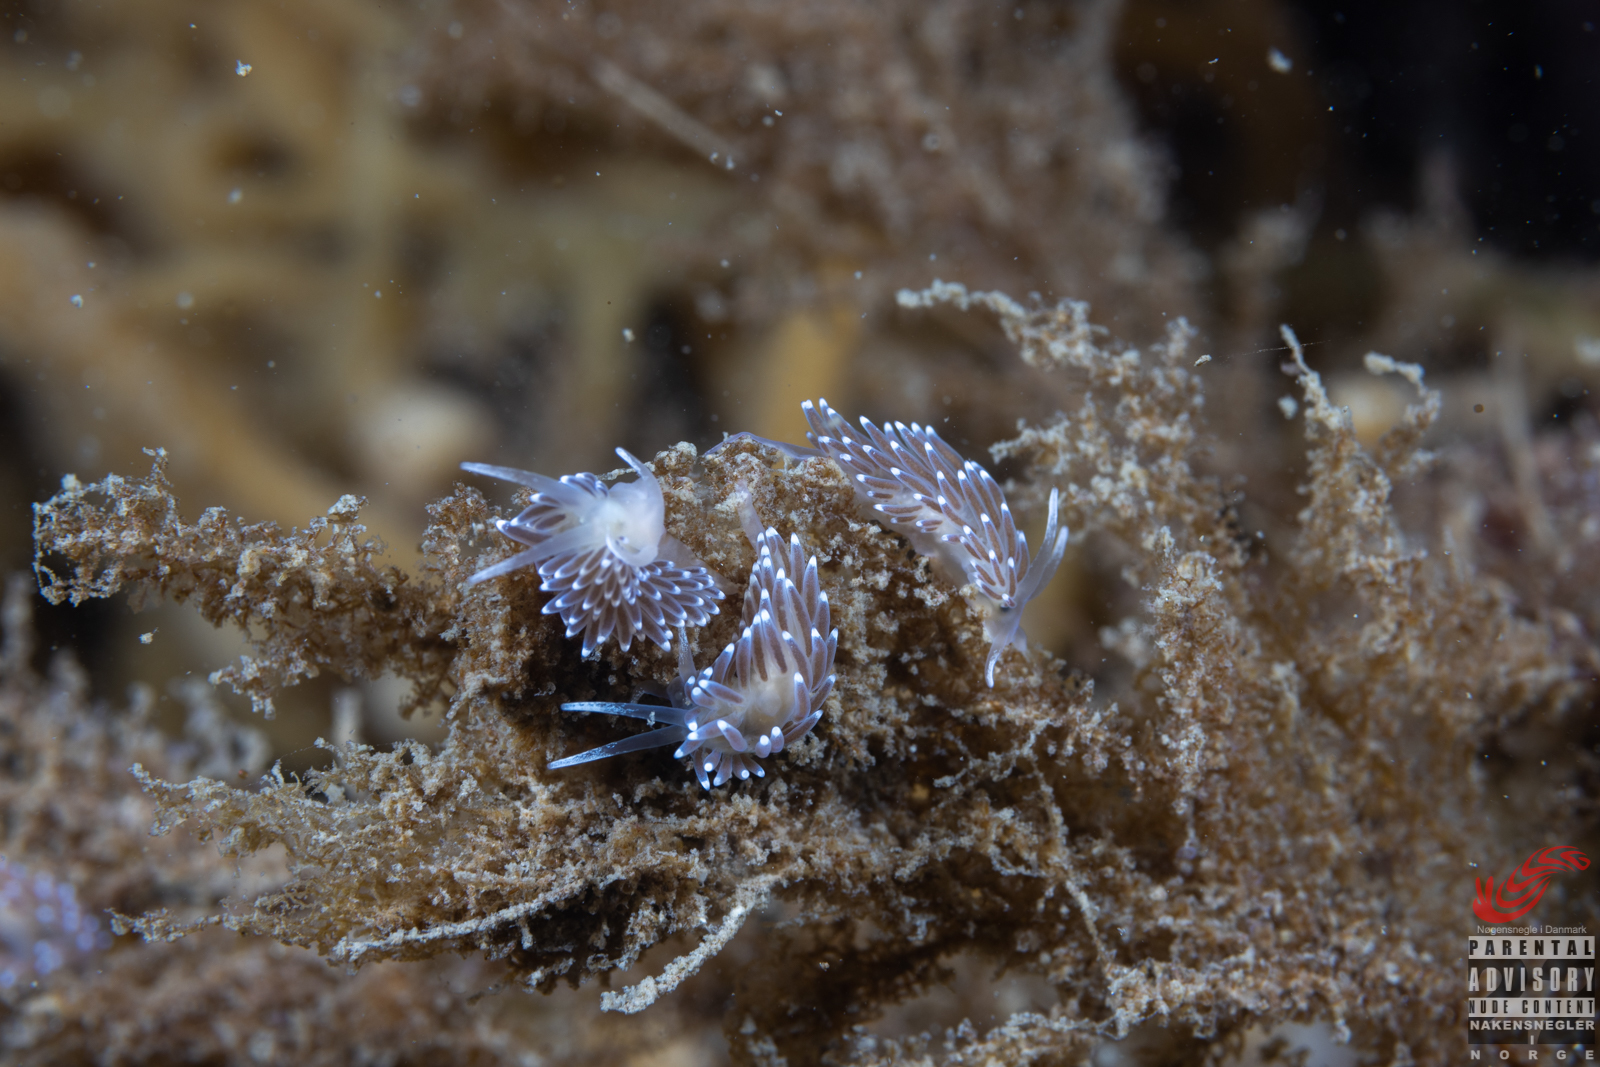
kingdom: Animalia
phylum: Mollusca
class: Gastropoda
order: Nudibranchia
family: Cuthonellidae
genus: Cuthonella
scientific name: Cuthonella concinna
